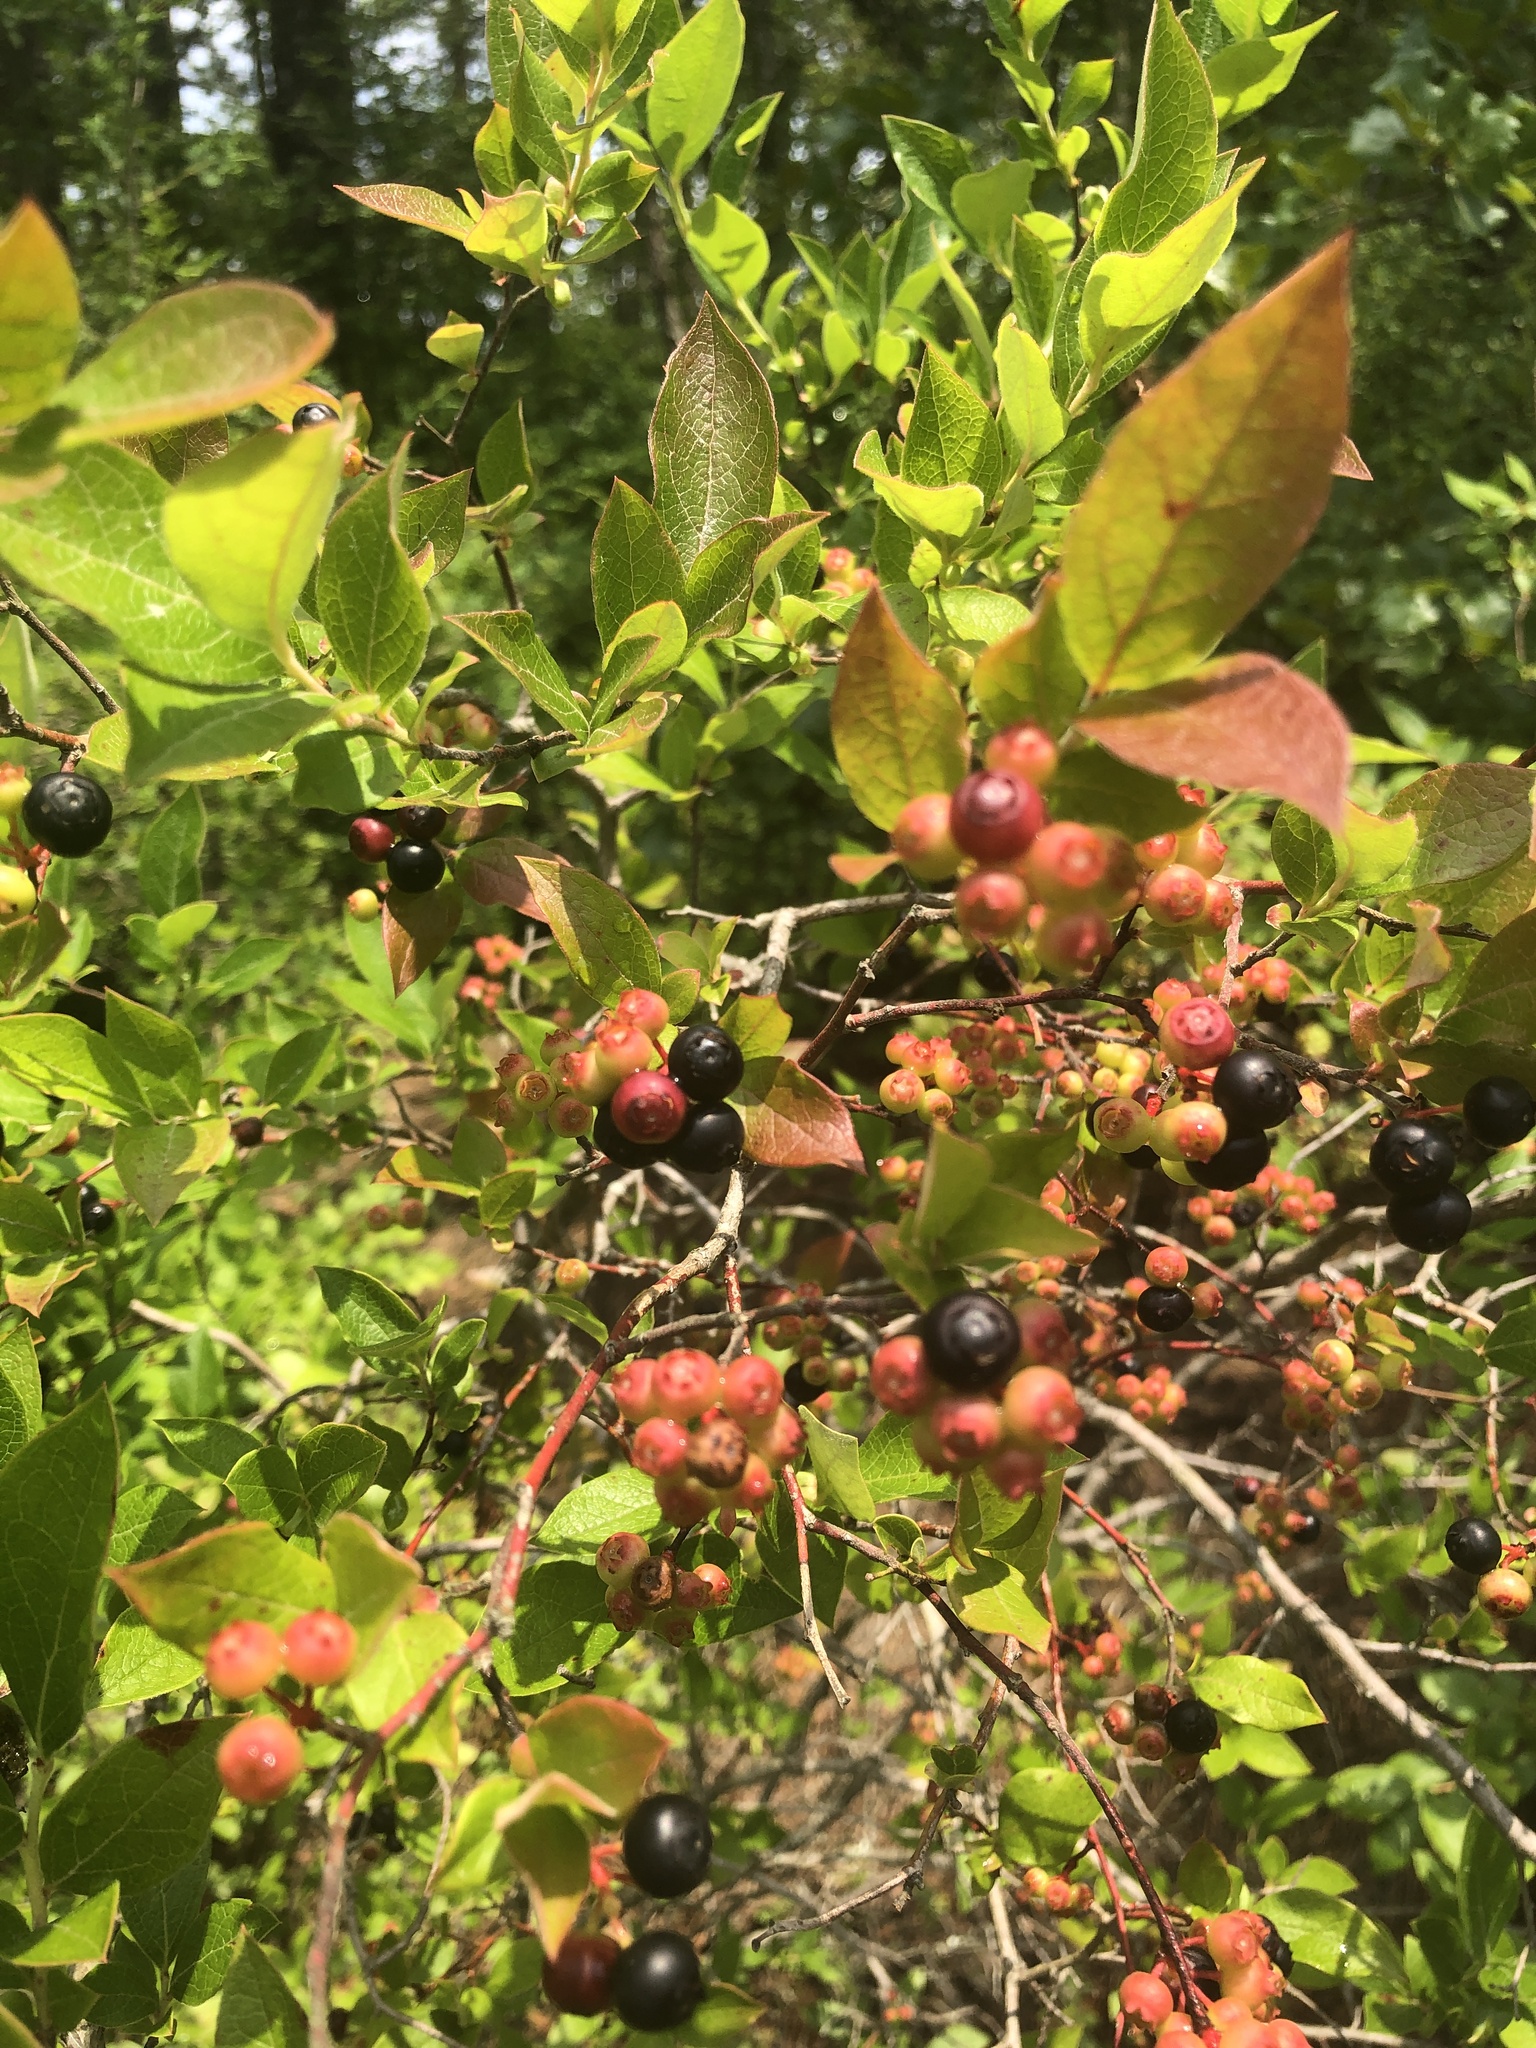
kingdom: Plantae
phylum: Tracheophyta
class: Magnoliopsida
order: Ericales
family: Ericaceae
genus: Vaccinium
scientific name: Vaccinium corymbosum
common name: Blueberry
